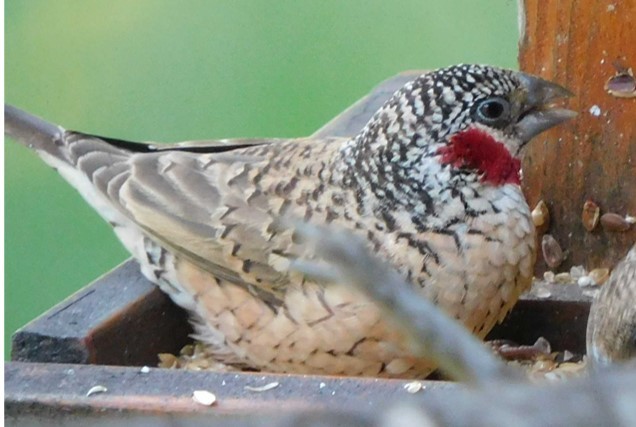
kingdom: Animalia
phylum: Chordata
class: Aves
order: Passeriformes
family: Estrildidae
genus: Amadina
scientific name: Amadina fasciata
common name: Cut-throat finch
